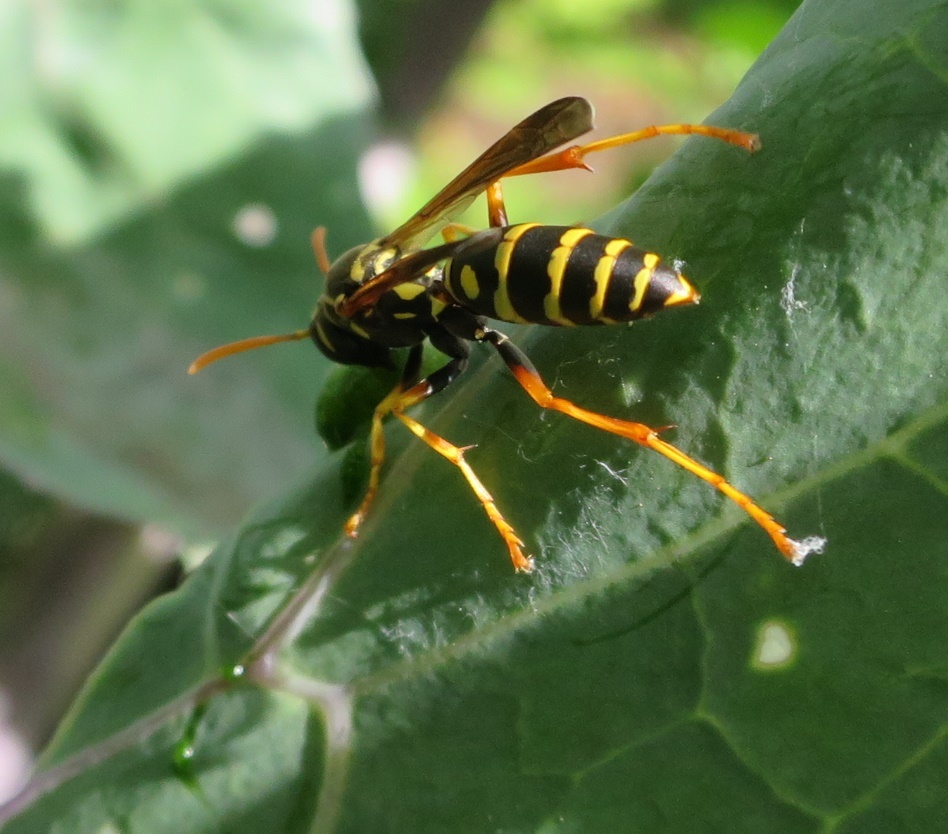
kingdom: Animalia
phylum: Arthropoda
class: Insecta
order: Hymenoptera
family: Eumenidae
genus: Polistes
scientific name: Polistes chinensis
